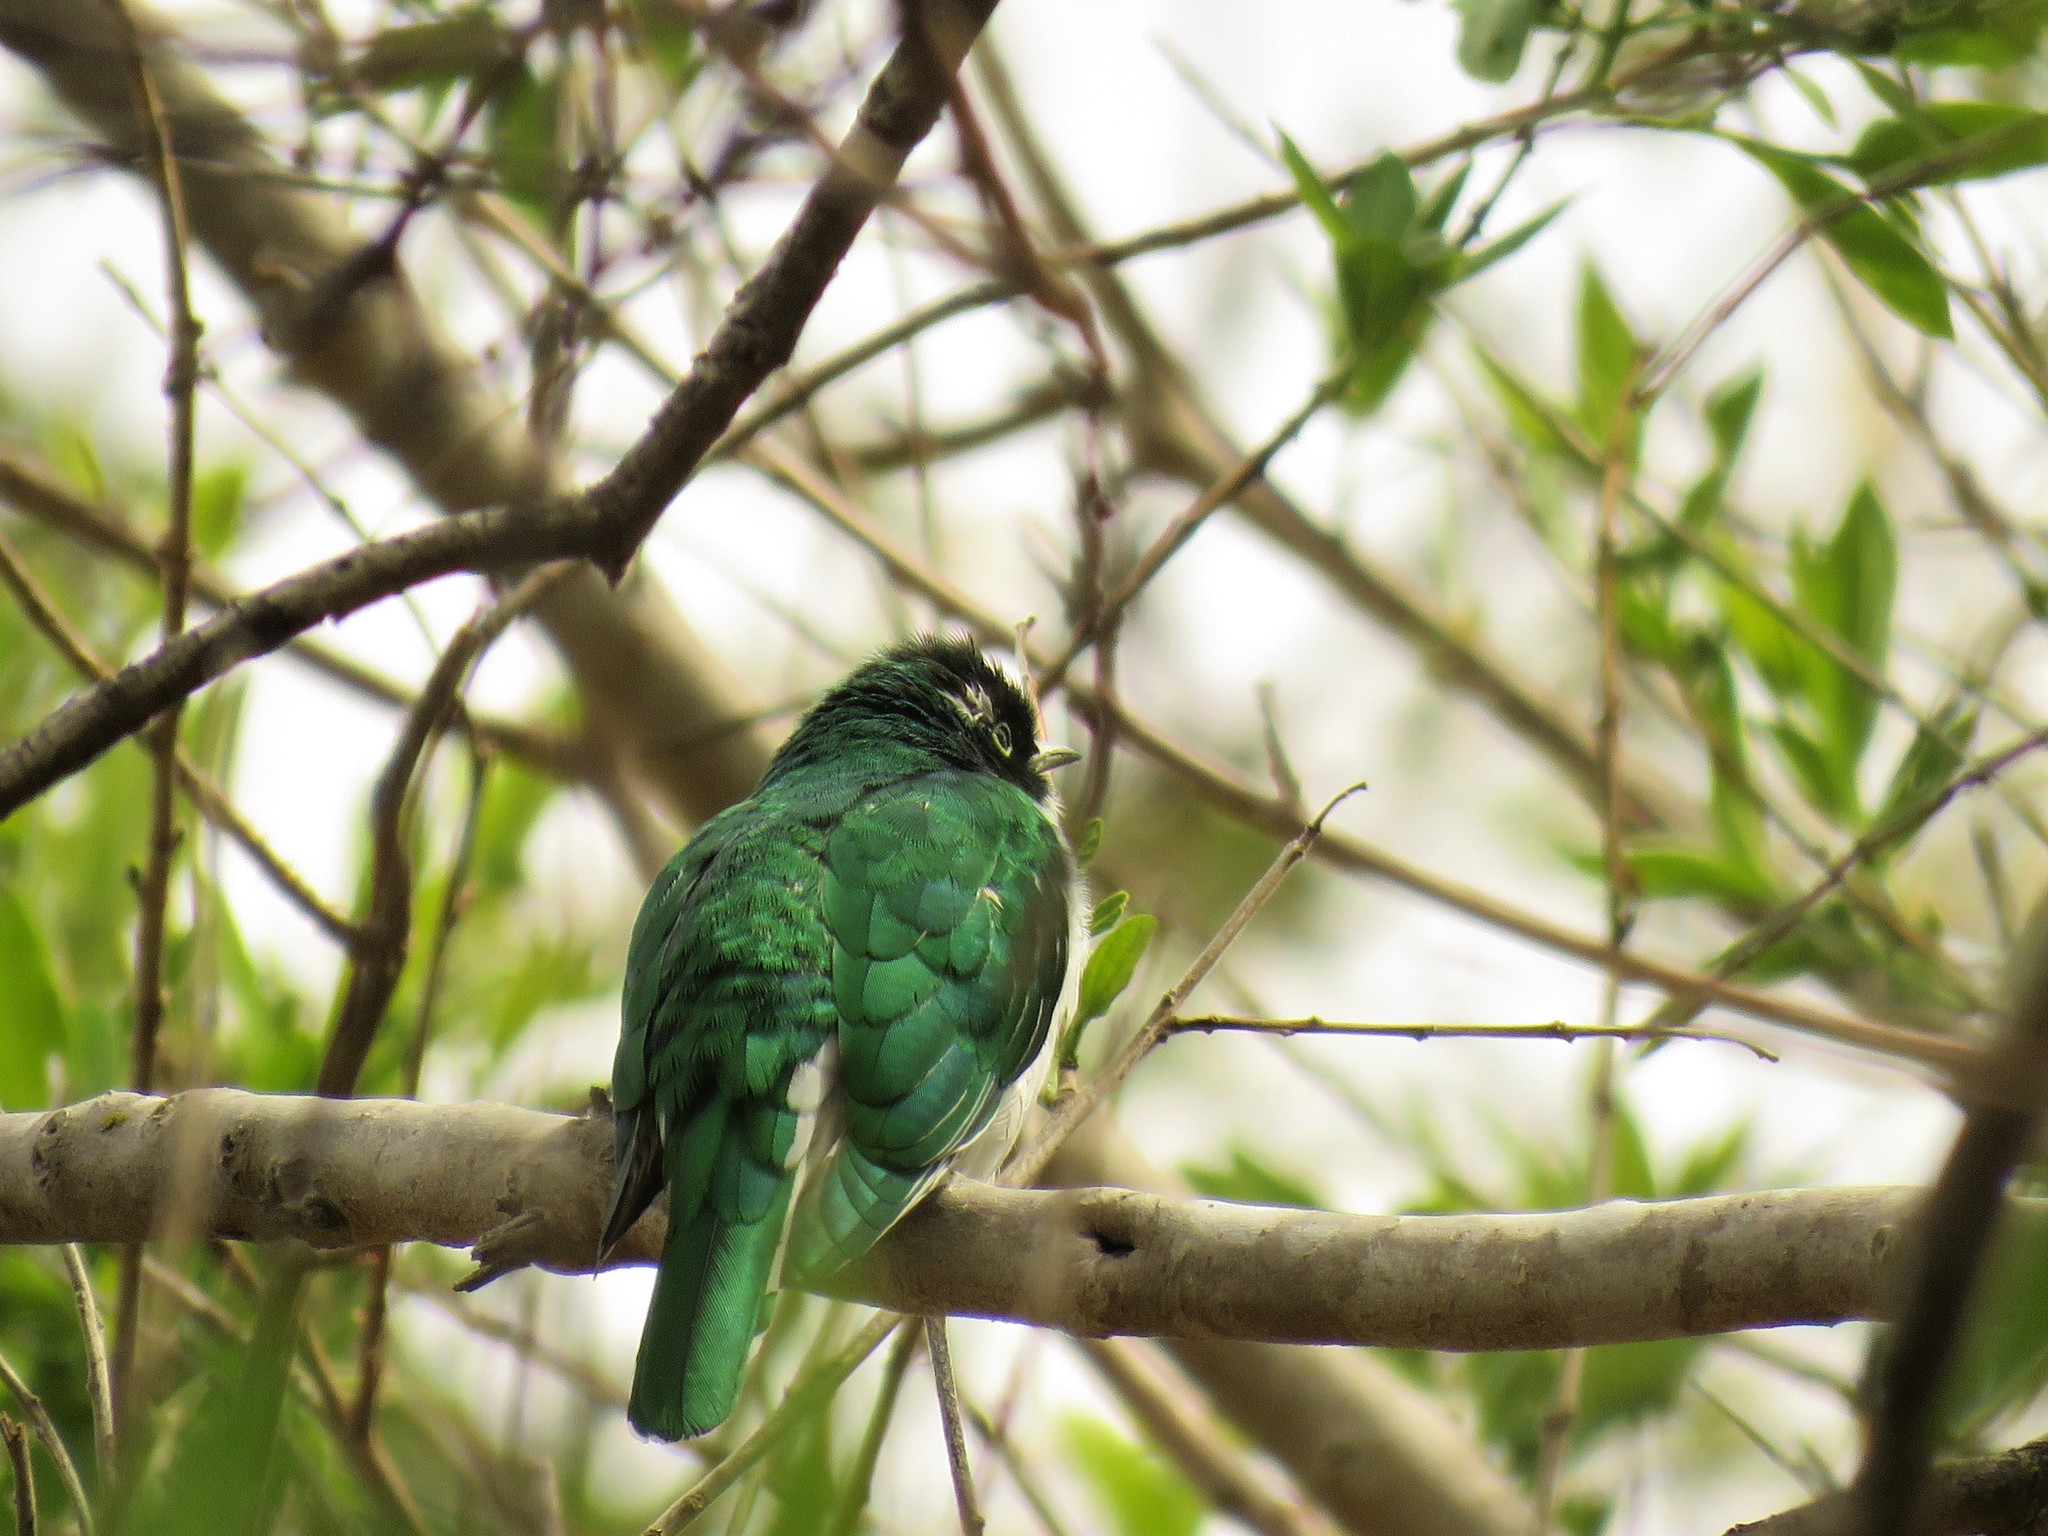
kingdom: Animalia
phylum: Chordata
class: Aves
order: Cuculiformes
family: Cuculidae
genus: Chrysococcyx
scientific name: Chrysococcyx klaas
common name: Klaas's cuckoo
